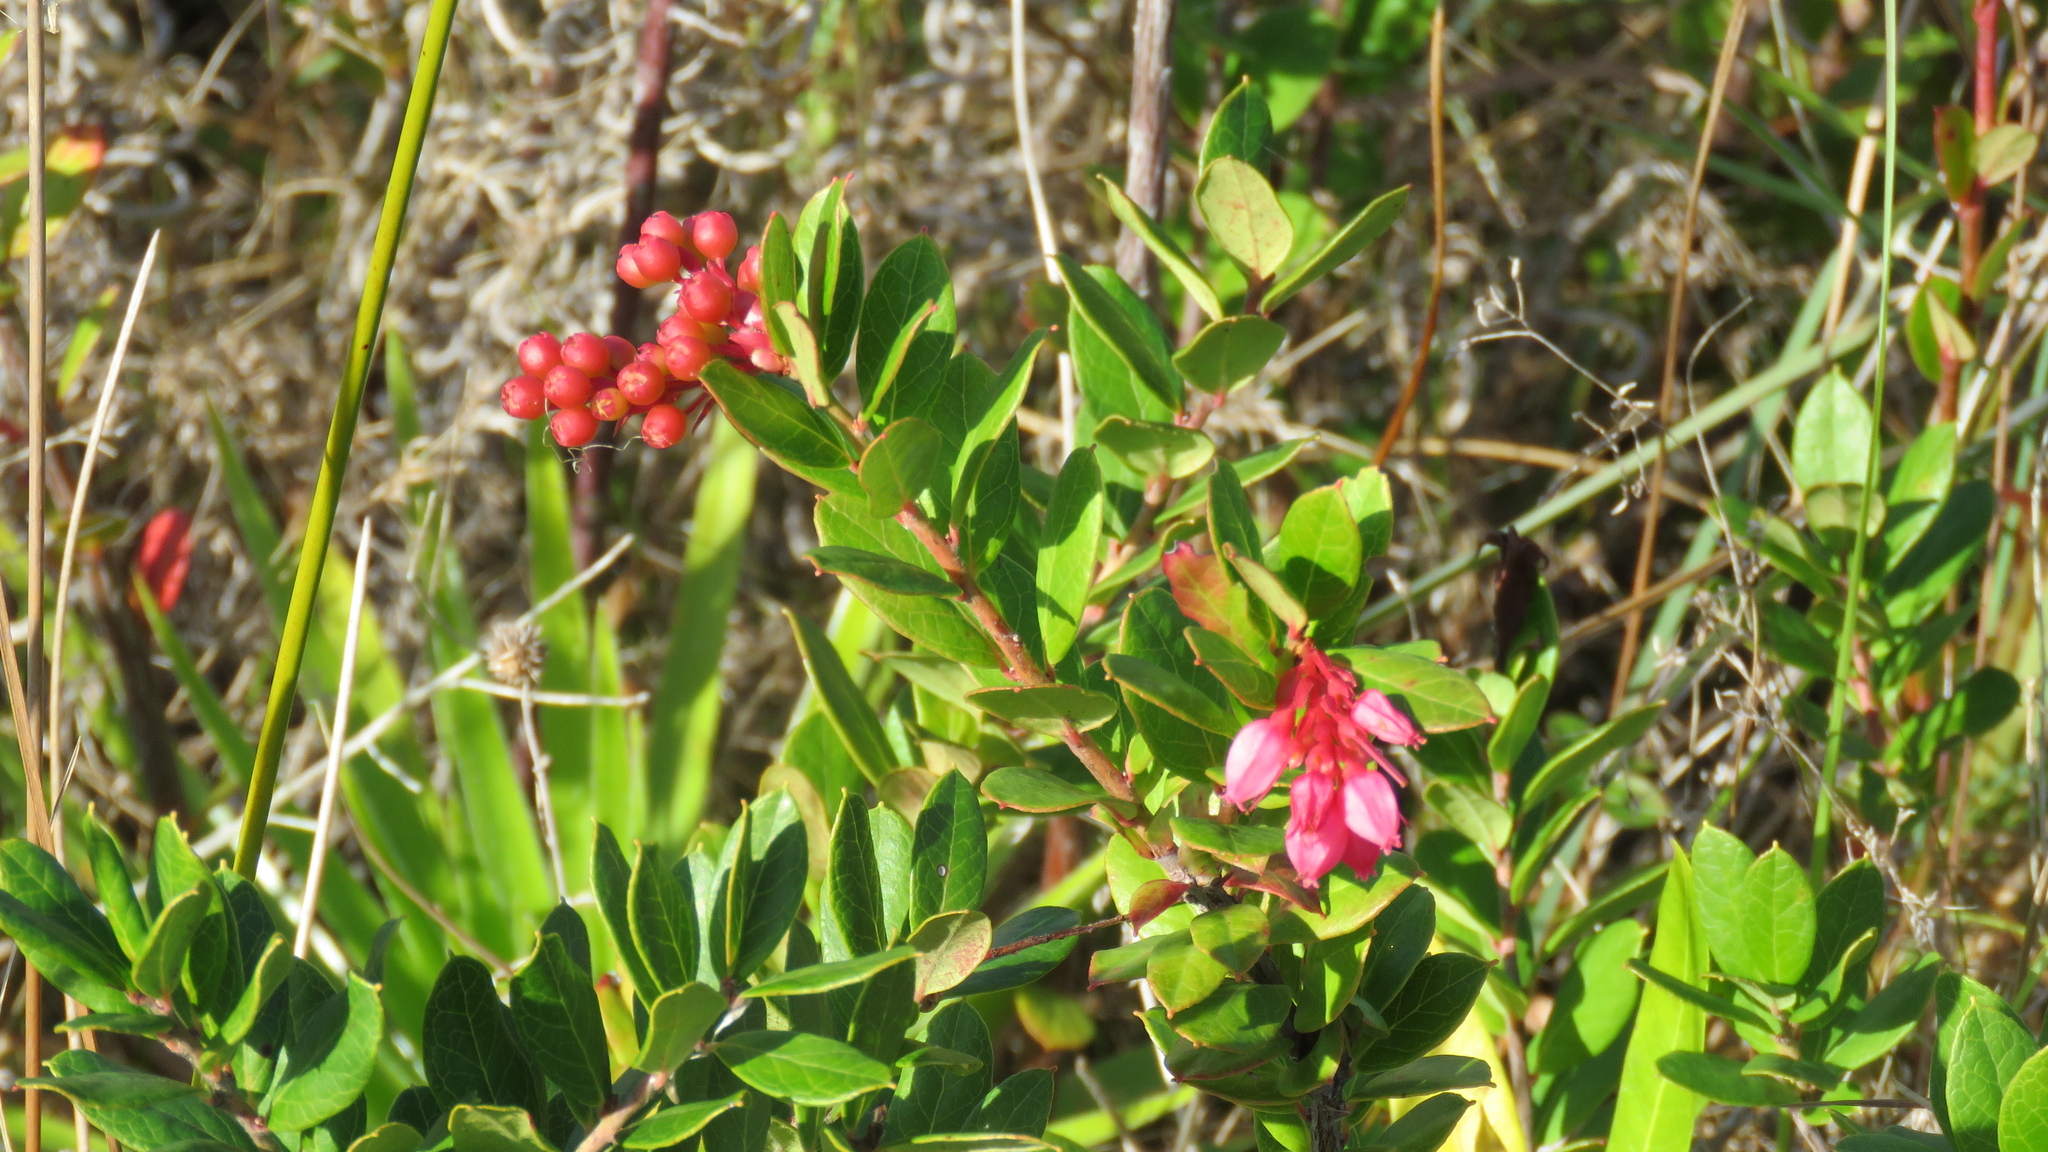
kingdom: Plantae
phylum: Tracheophyta
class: Magnoliopsida
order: Ericales
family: Ericaceae
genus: Gaylussacia
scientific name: Gaylussacia brasiliensis
